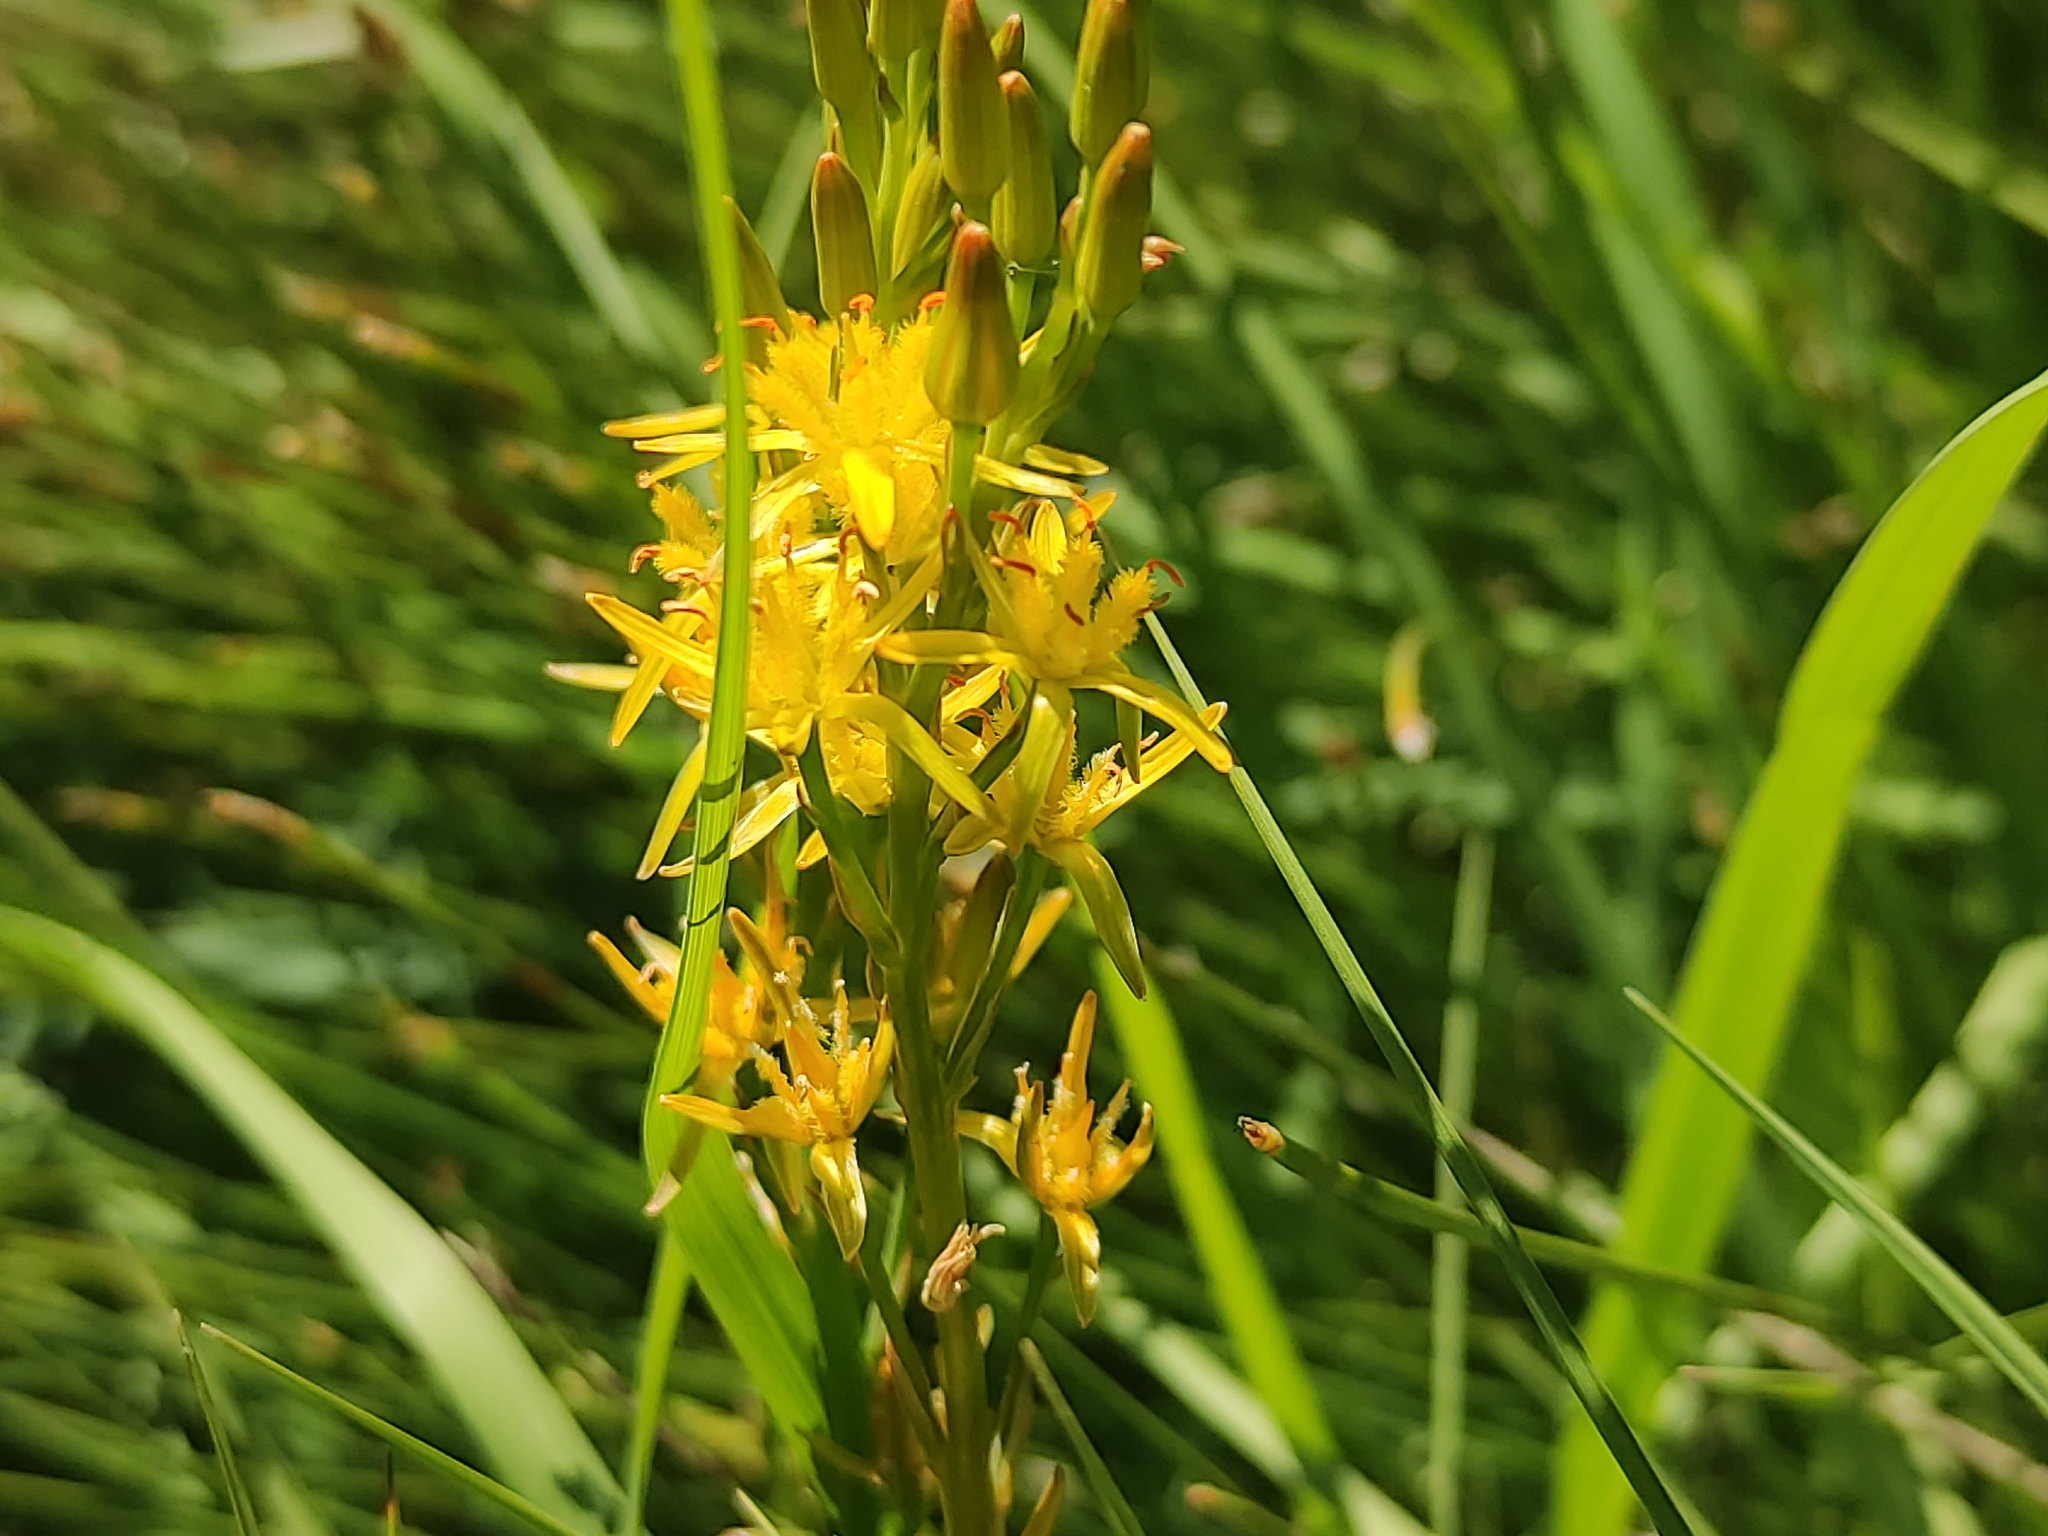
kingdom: Plantae
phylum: Tracheophyta
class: Liliopsida
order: Dioscoreales
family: Nartheciaceae
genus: Narthecium
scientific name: Narthecium ossifragum
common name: Bog asphodel
